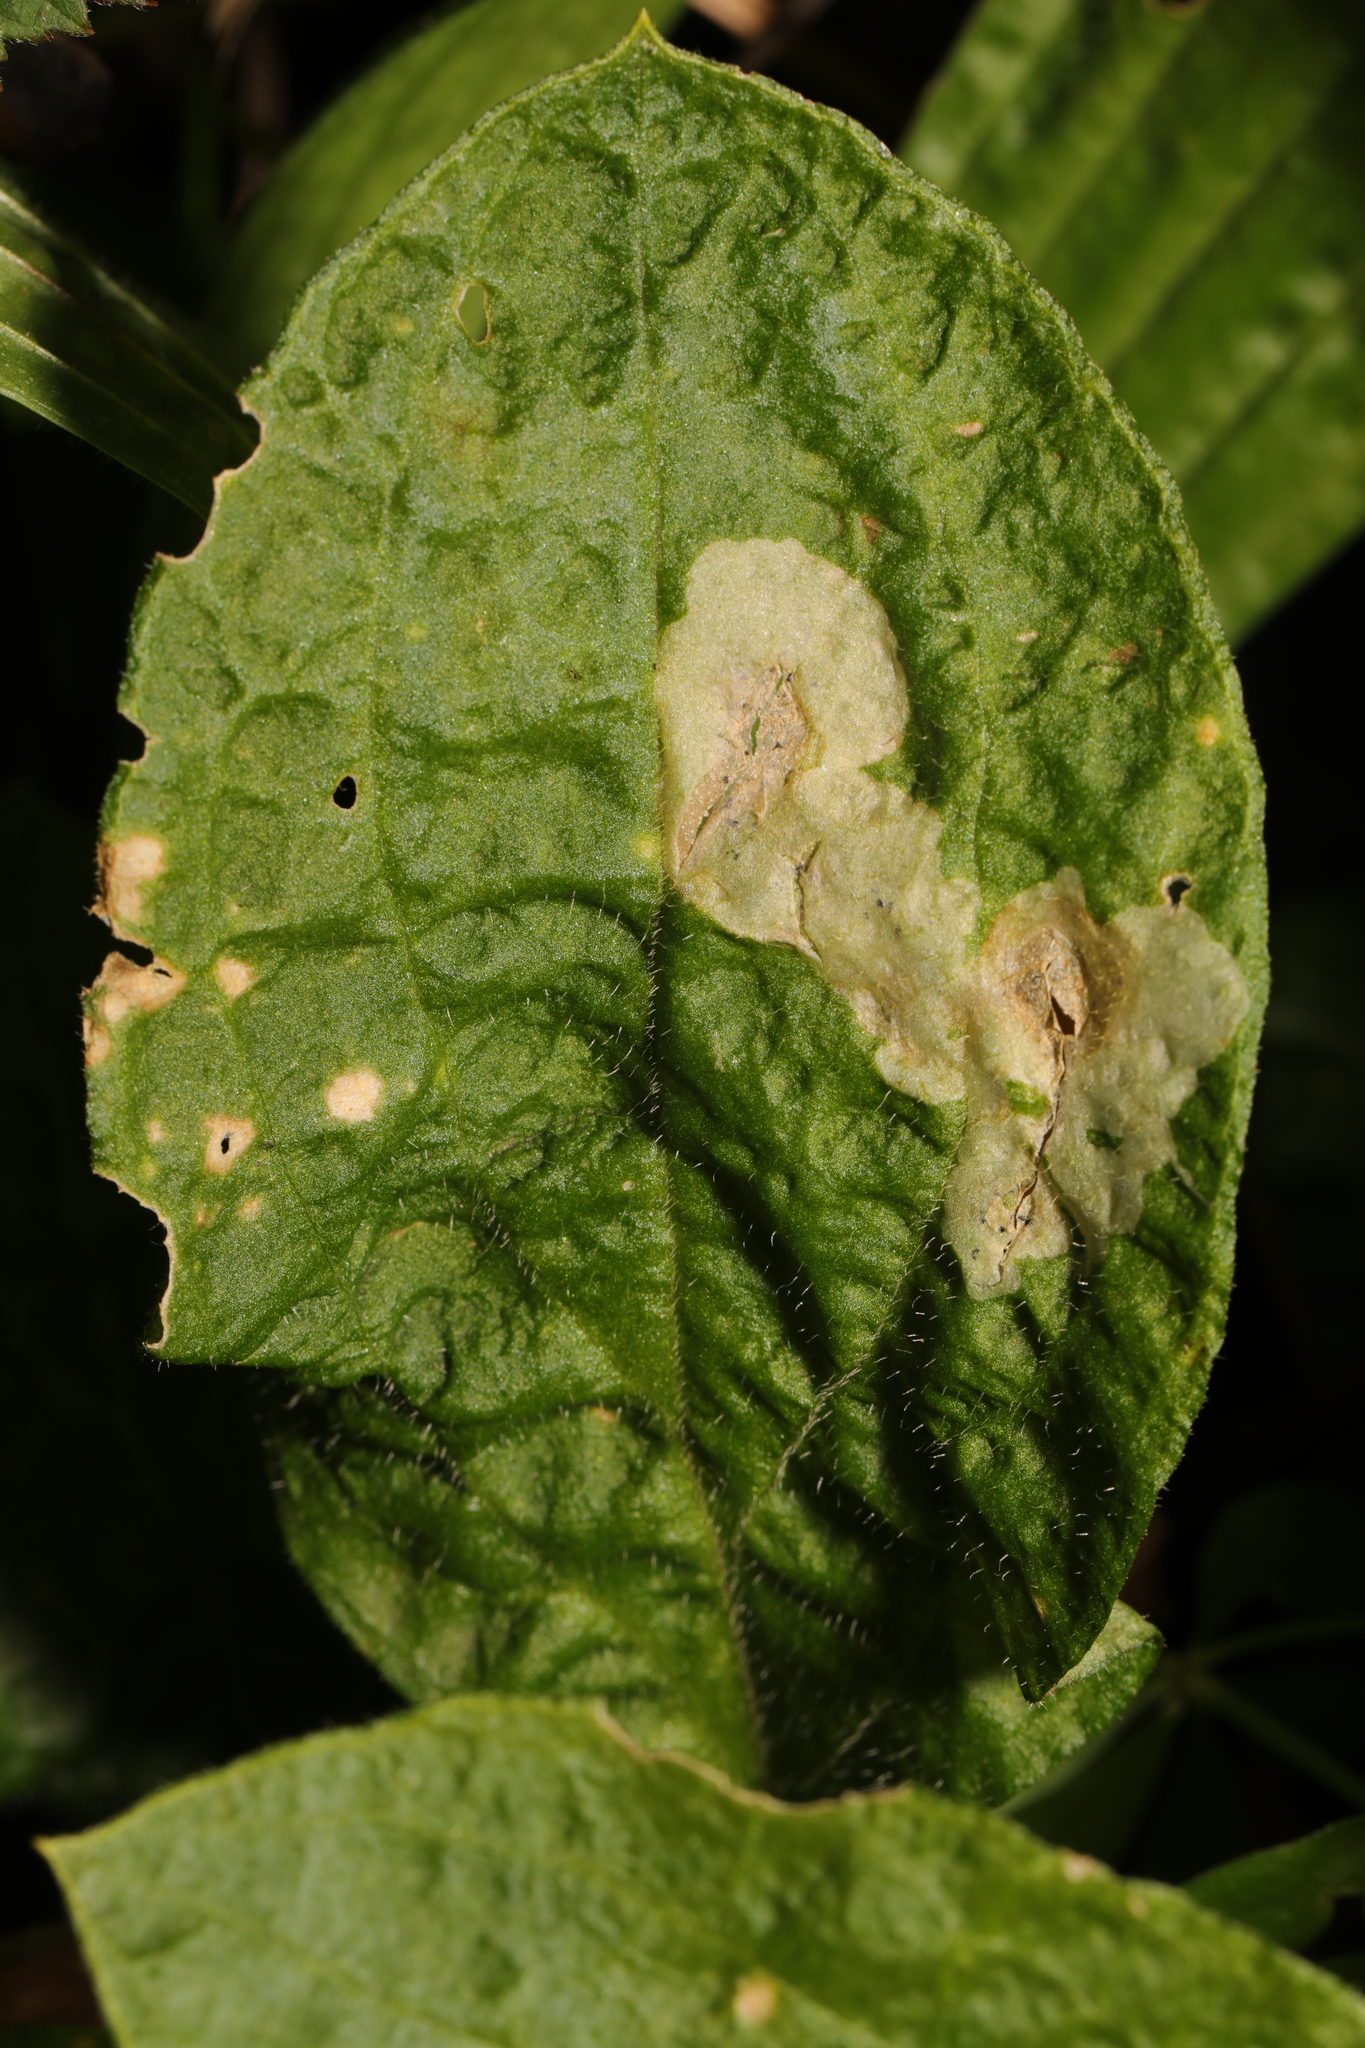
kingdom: Animalia
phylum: Arthropoda
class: Insecta
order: Diptera
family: Anthomyiidae
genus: Pegomya
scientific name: Pegomya flavifrons
